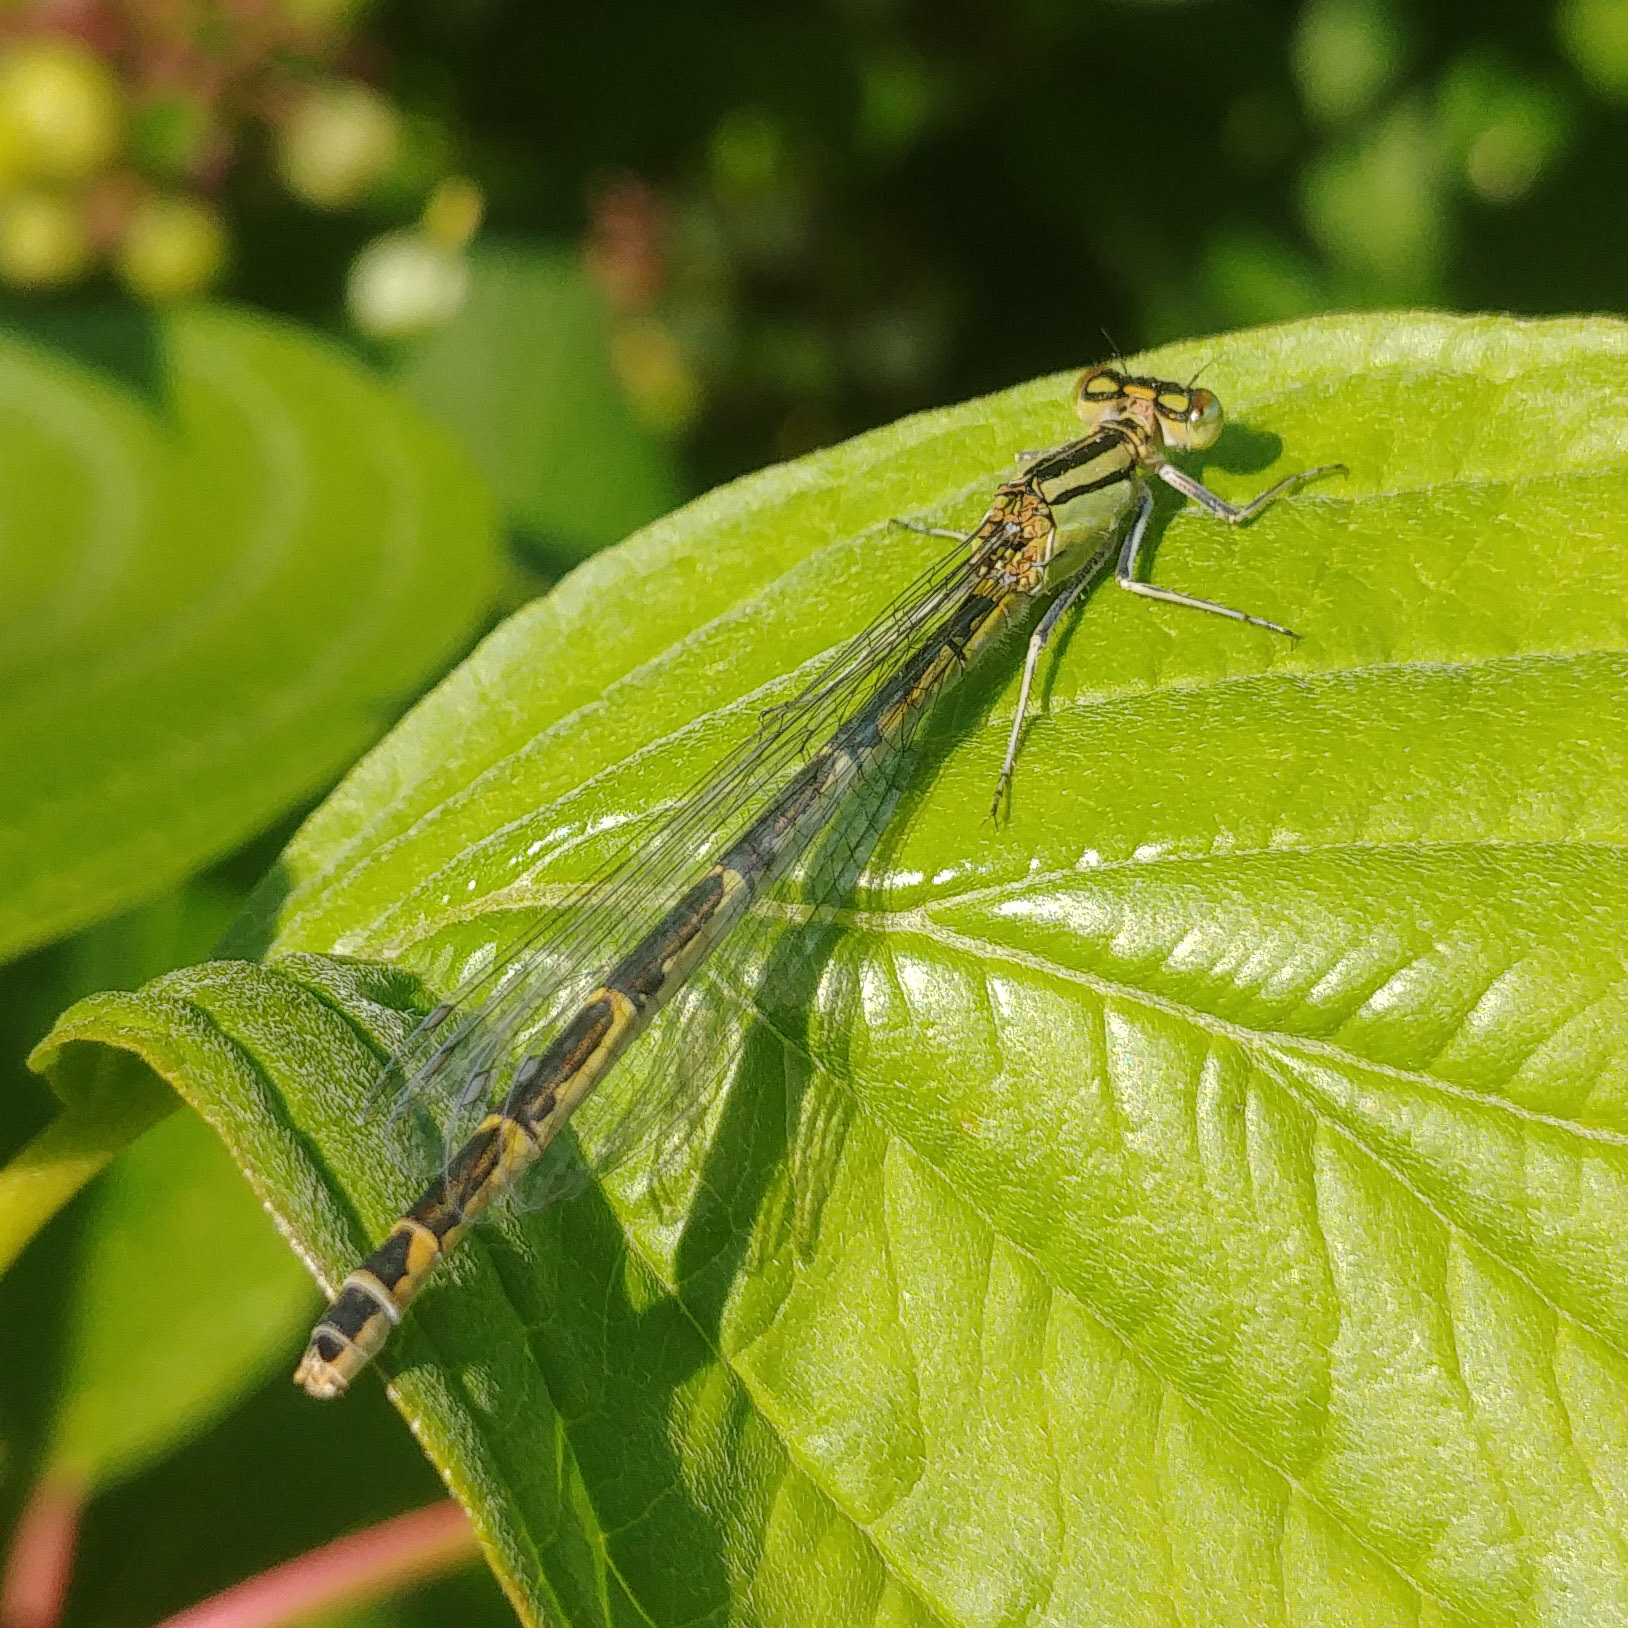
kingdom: Animalia
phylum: Arthropoda
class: Insecta
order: Odonata
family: Coenagrionidae
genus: Enallagma
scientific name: Enallagma cyathigerum
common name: Common blue damselfly
